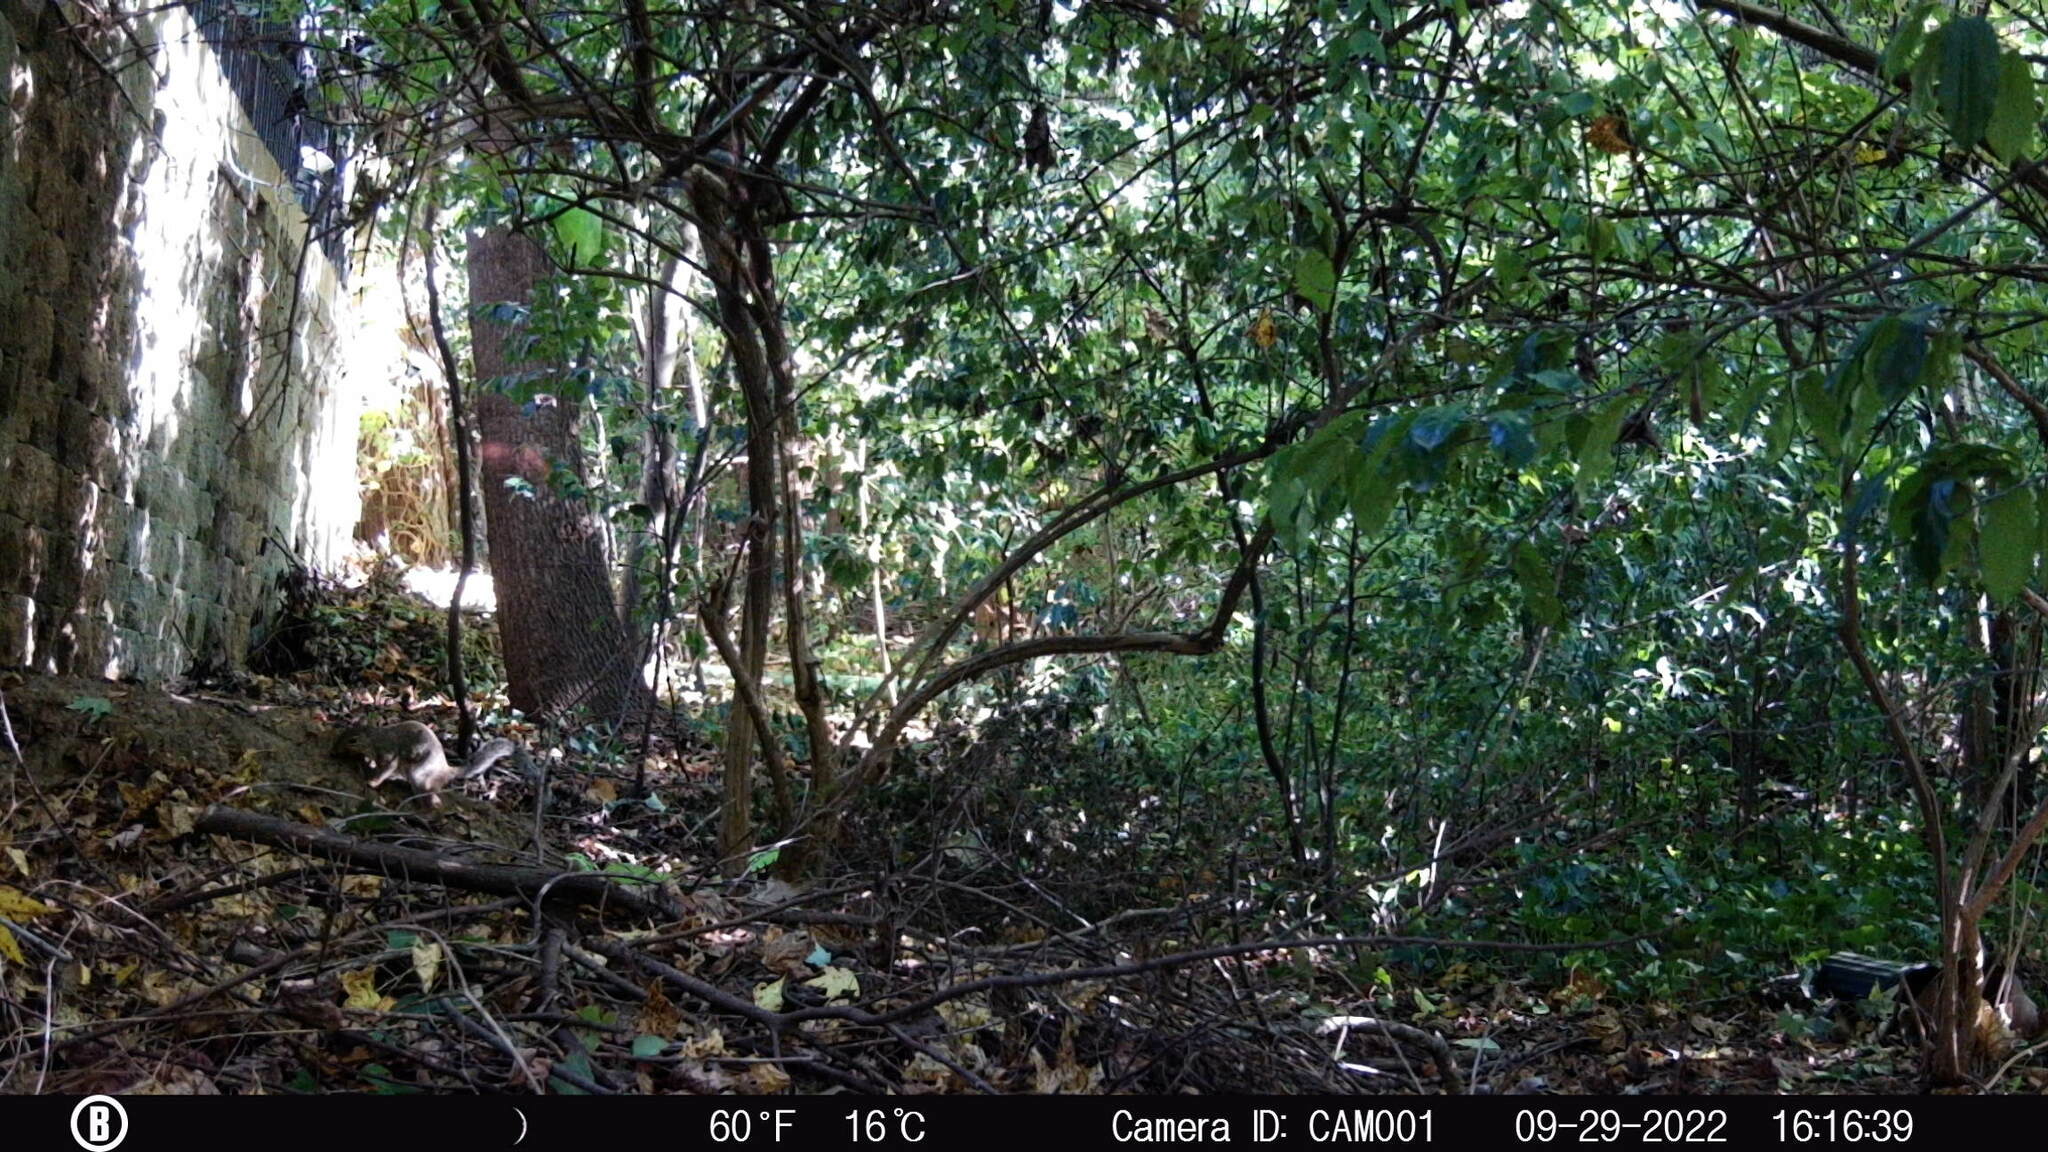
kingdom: Animalia
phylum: Chordata
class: Mammalia
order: Rodentia
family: Sciuridae
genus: Sciurus
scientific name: Sciurus carolinensis
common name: Eastern gray squirrel
